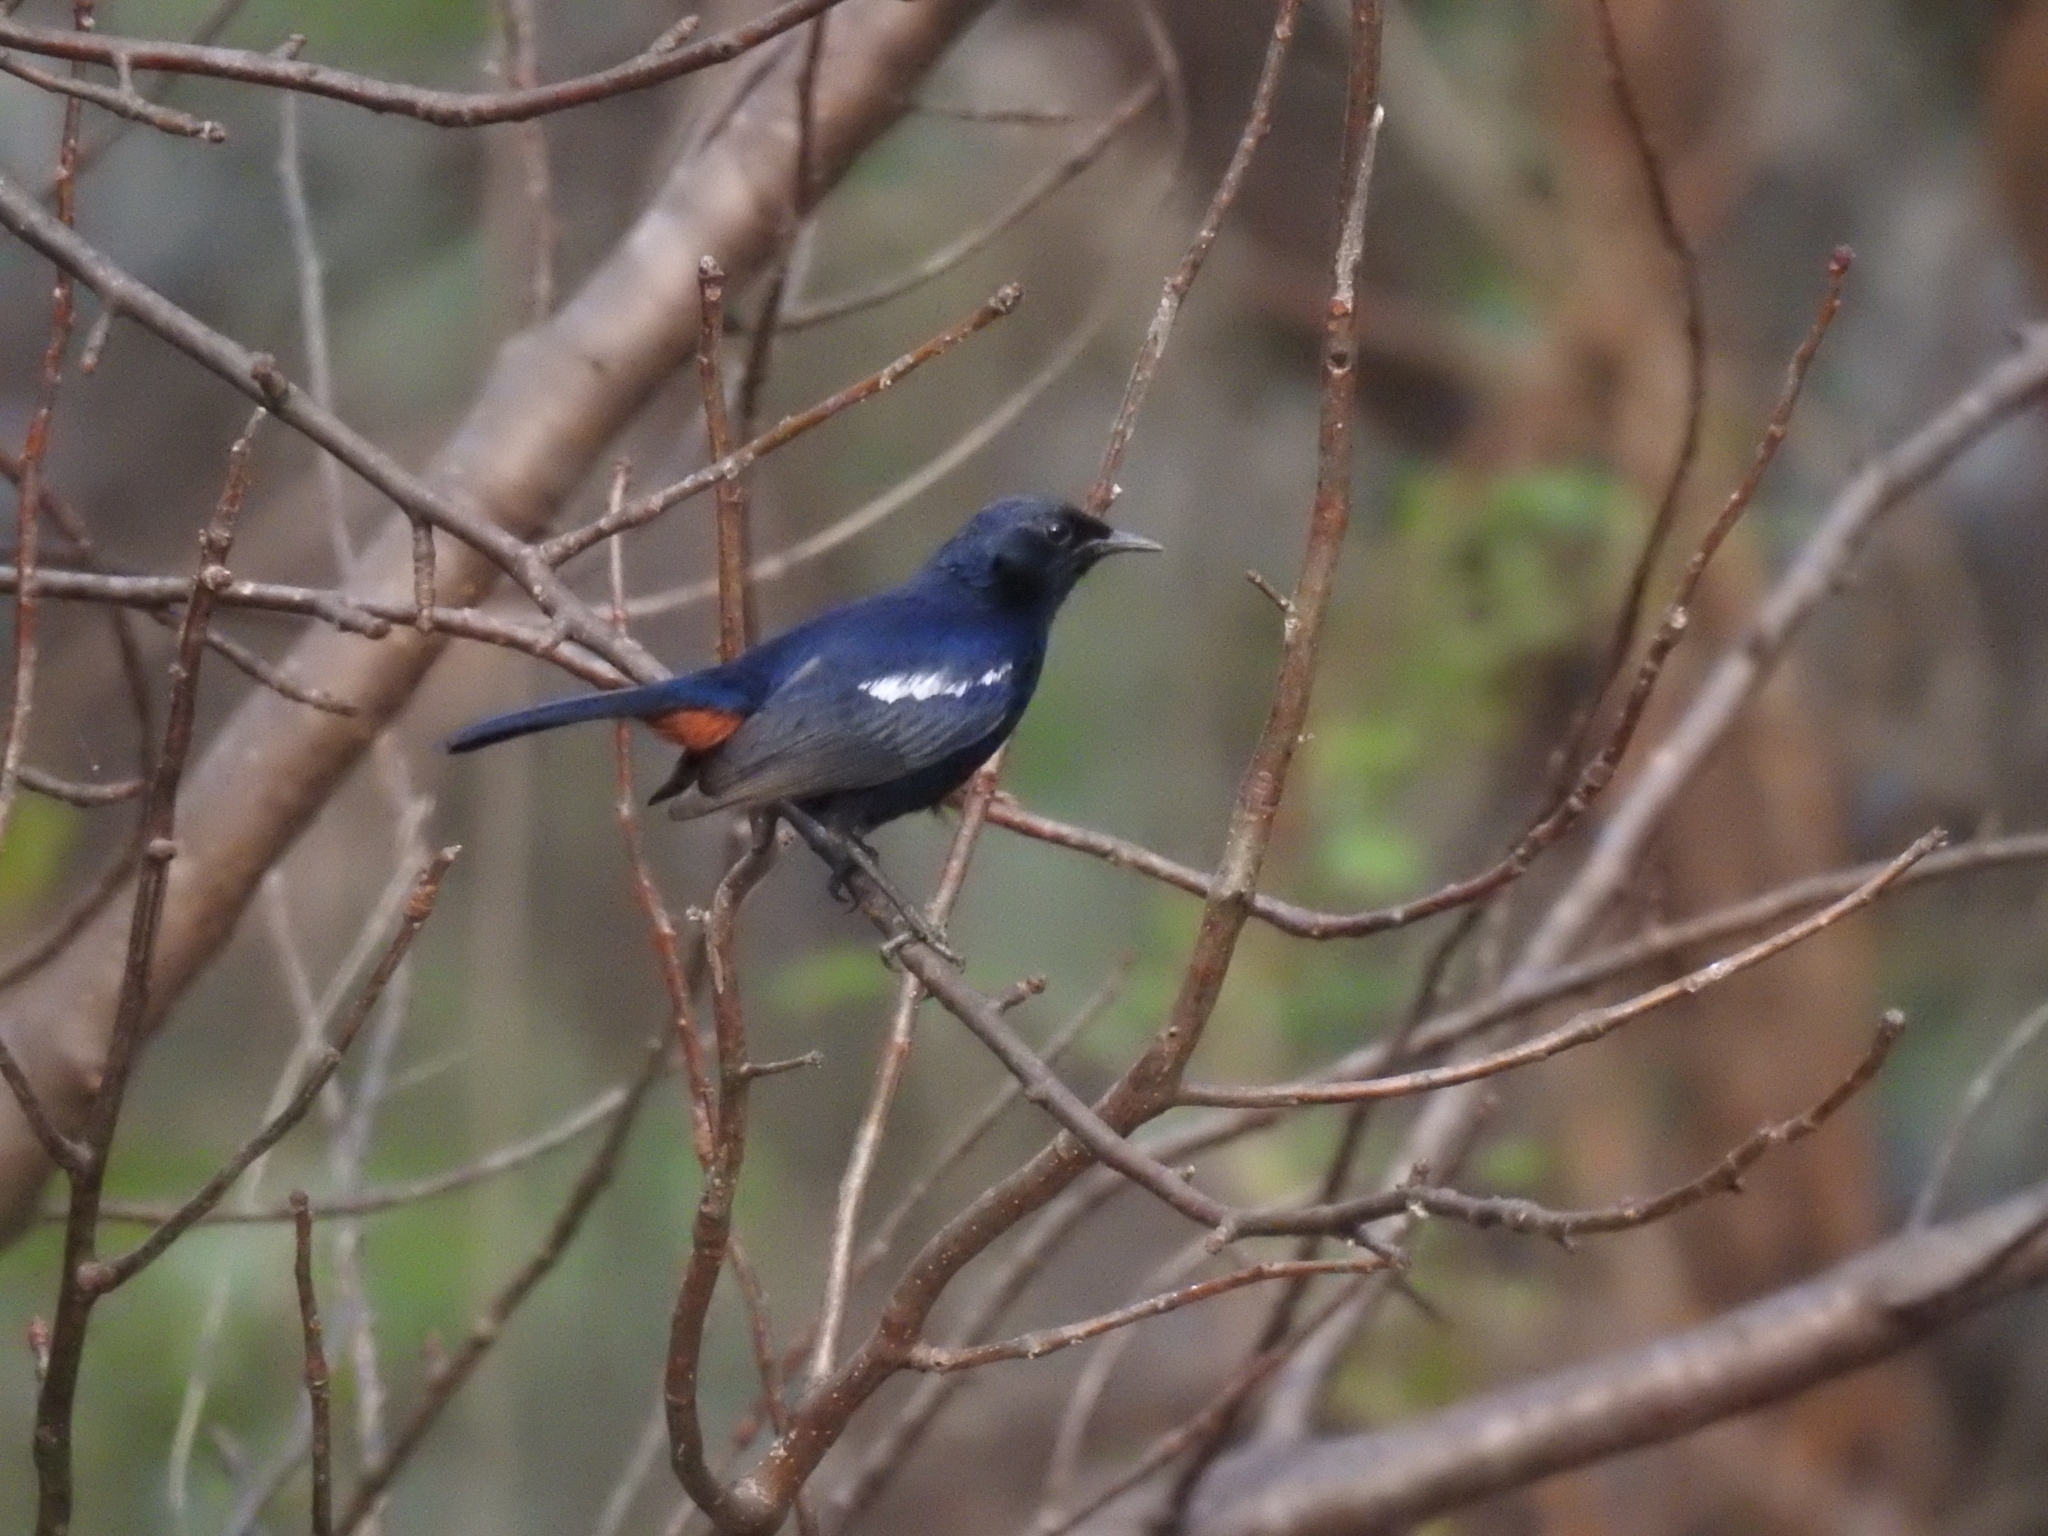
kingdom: Animalia
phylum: Chordata
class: Aves
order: Passeriformes
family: Muscicapidae
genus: Saxicoloides
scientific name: Saxicoloides fulicatus
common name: Indian robin
